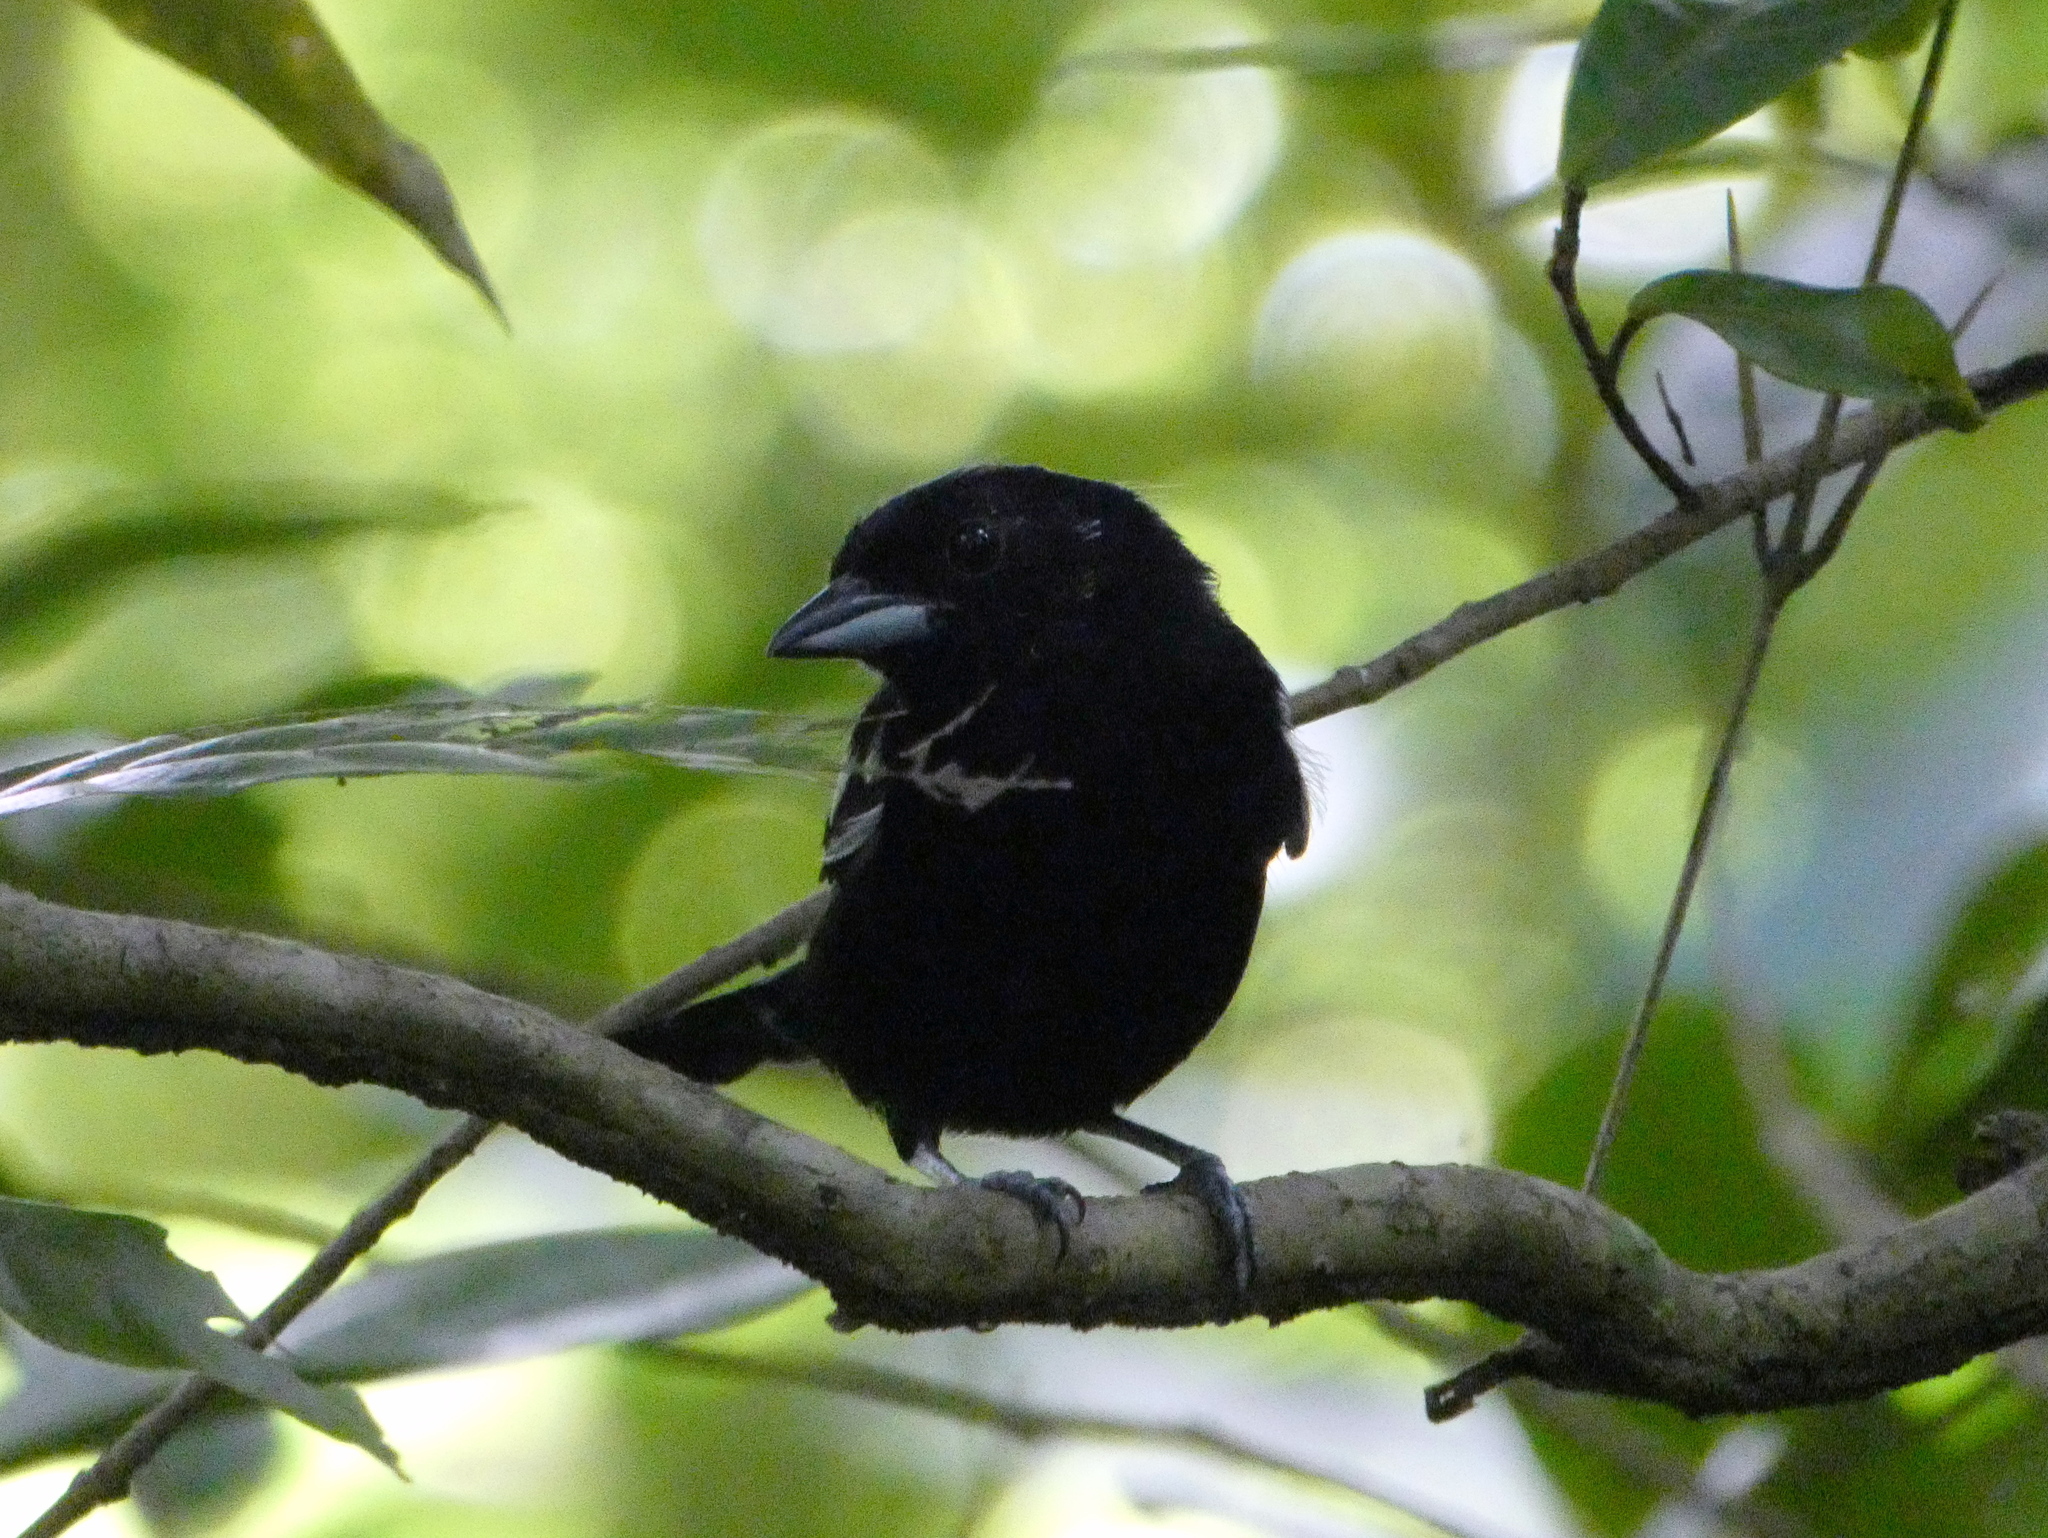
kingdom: Animalia
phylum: Chordata
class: Aves
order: Passeriformes
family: Thraupidae
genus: Loriotus
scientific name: Loriotus luctuosus
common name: White-shouldered tanager
